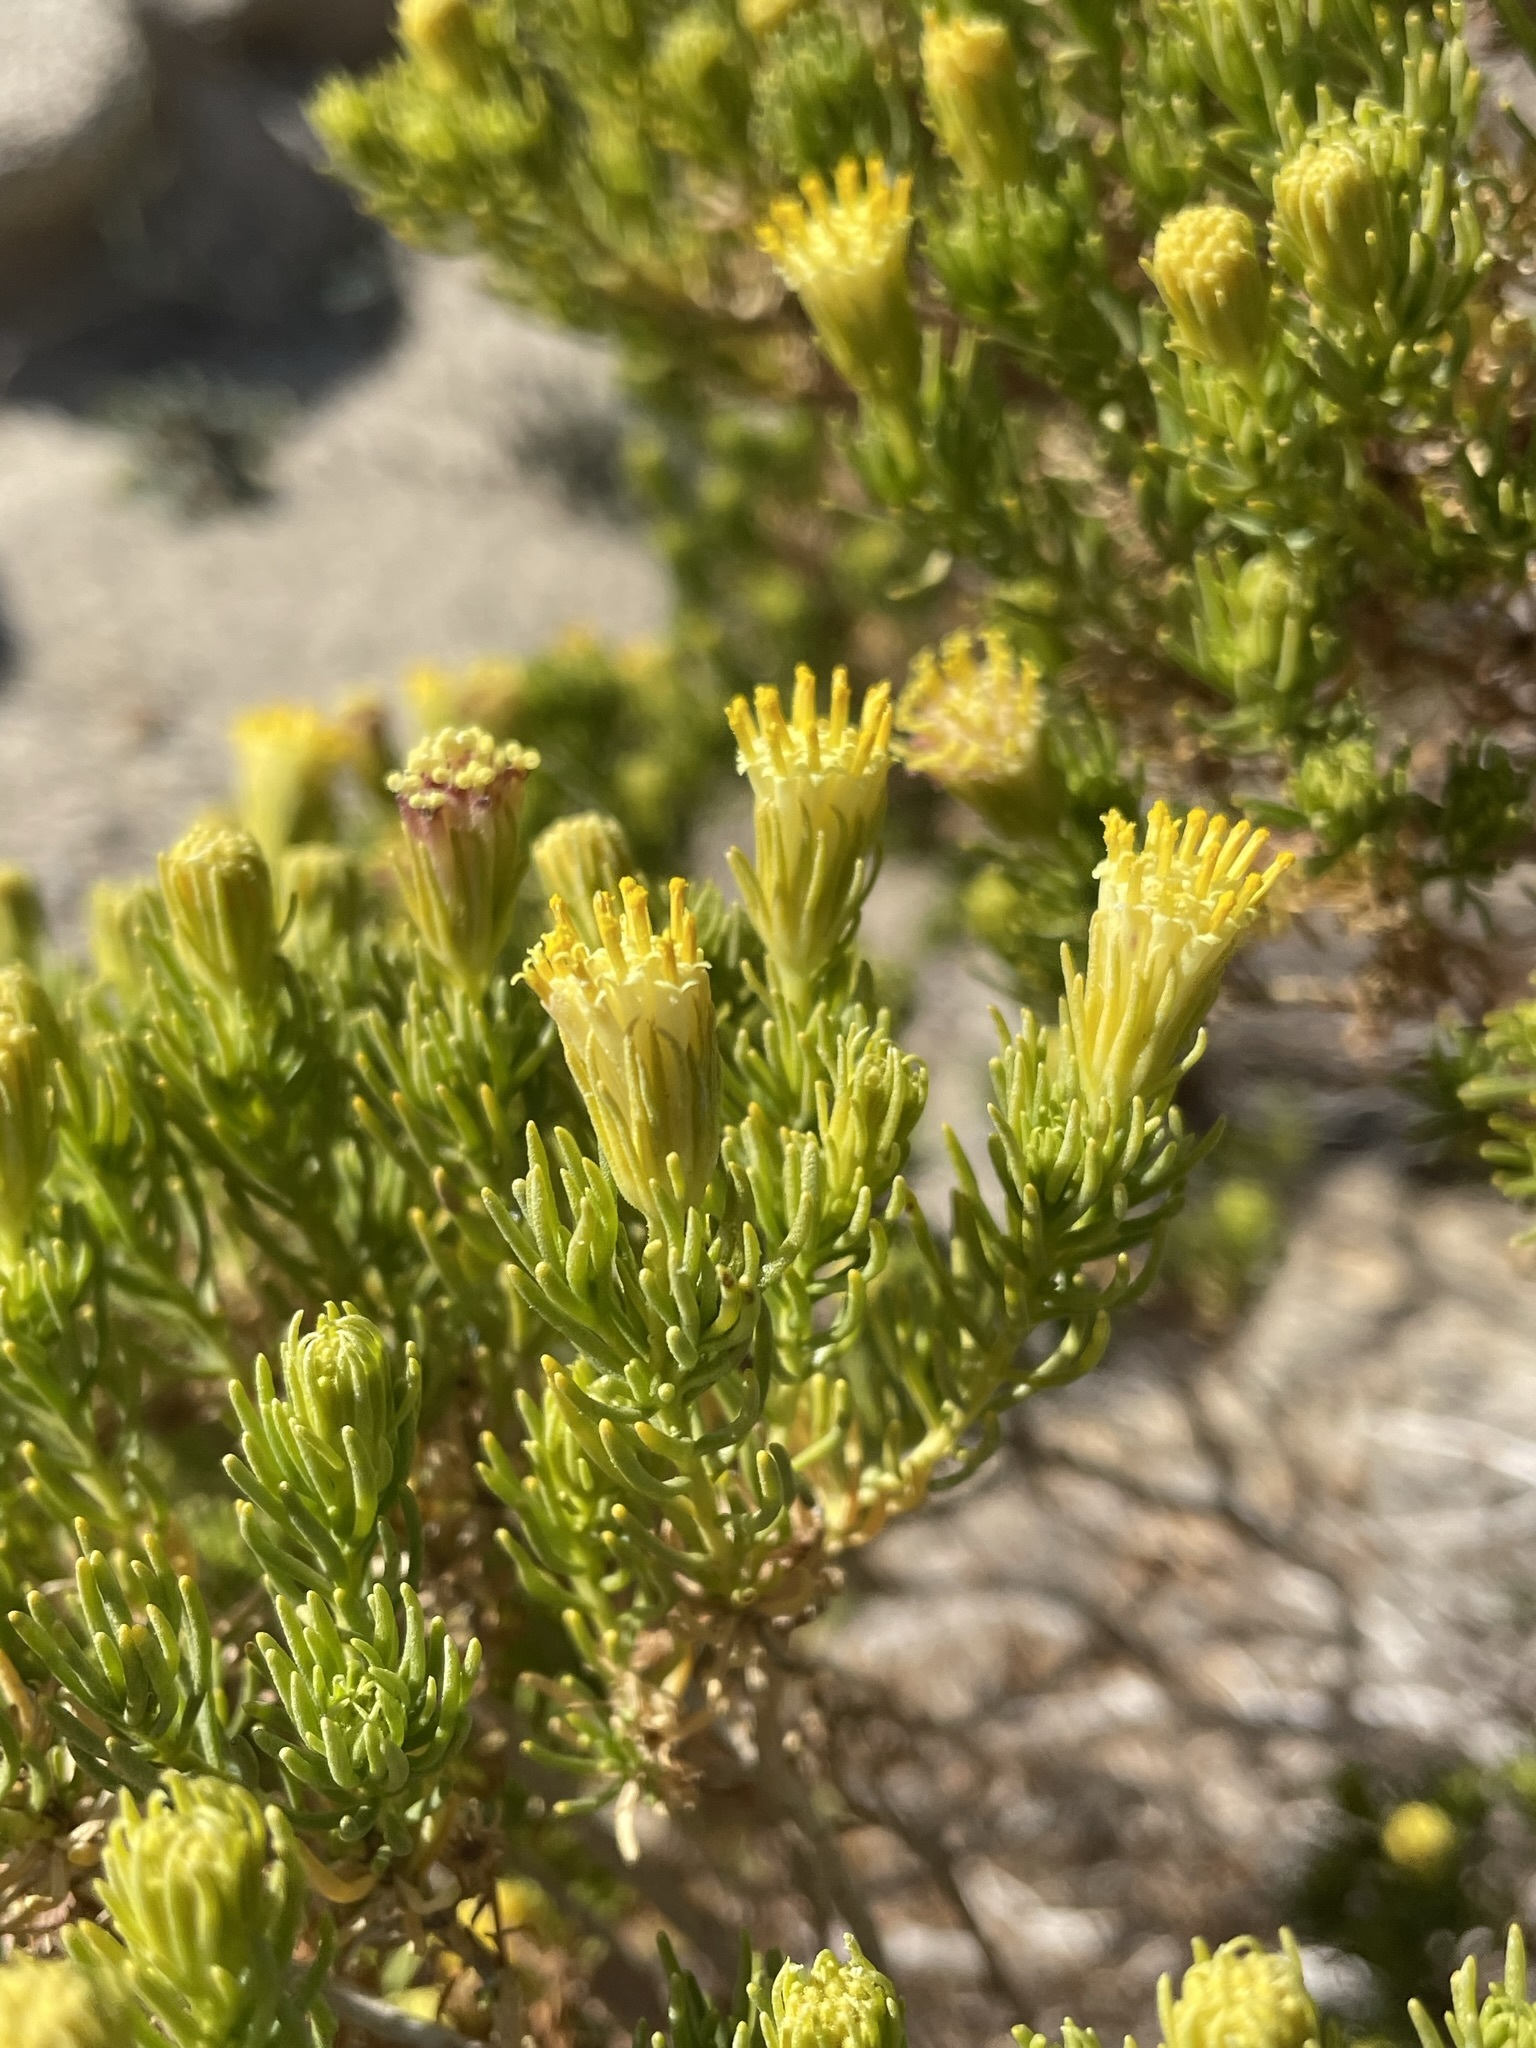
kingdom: Plantae
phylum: Tracheophyta
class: Magnoliopsida
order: Asterales
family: Asteraceae
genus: Peucephyllum
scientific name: Peucephyllum schottii
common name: Pygmy-cedar
